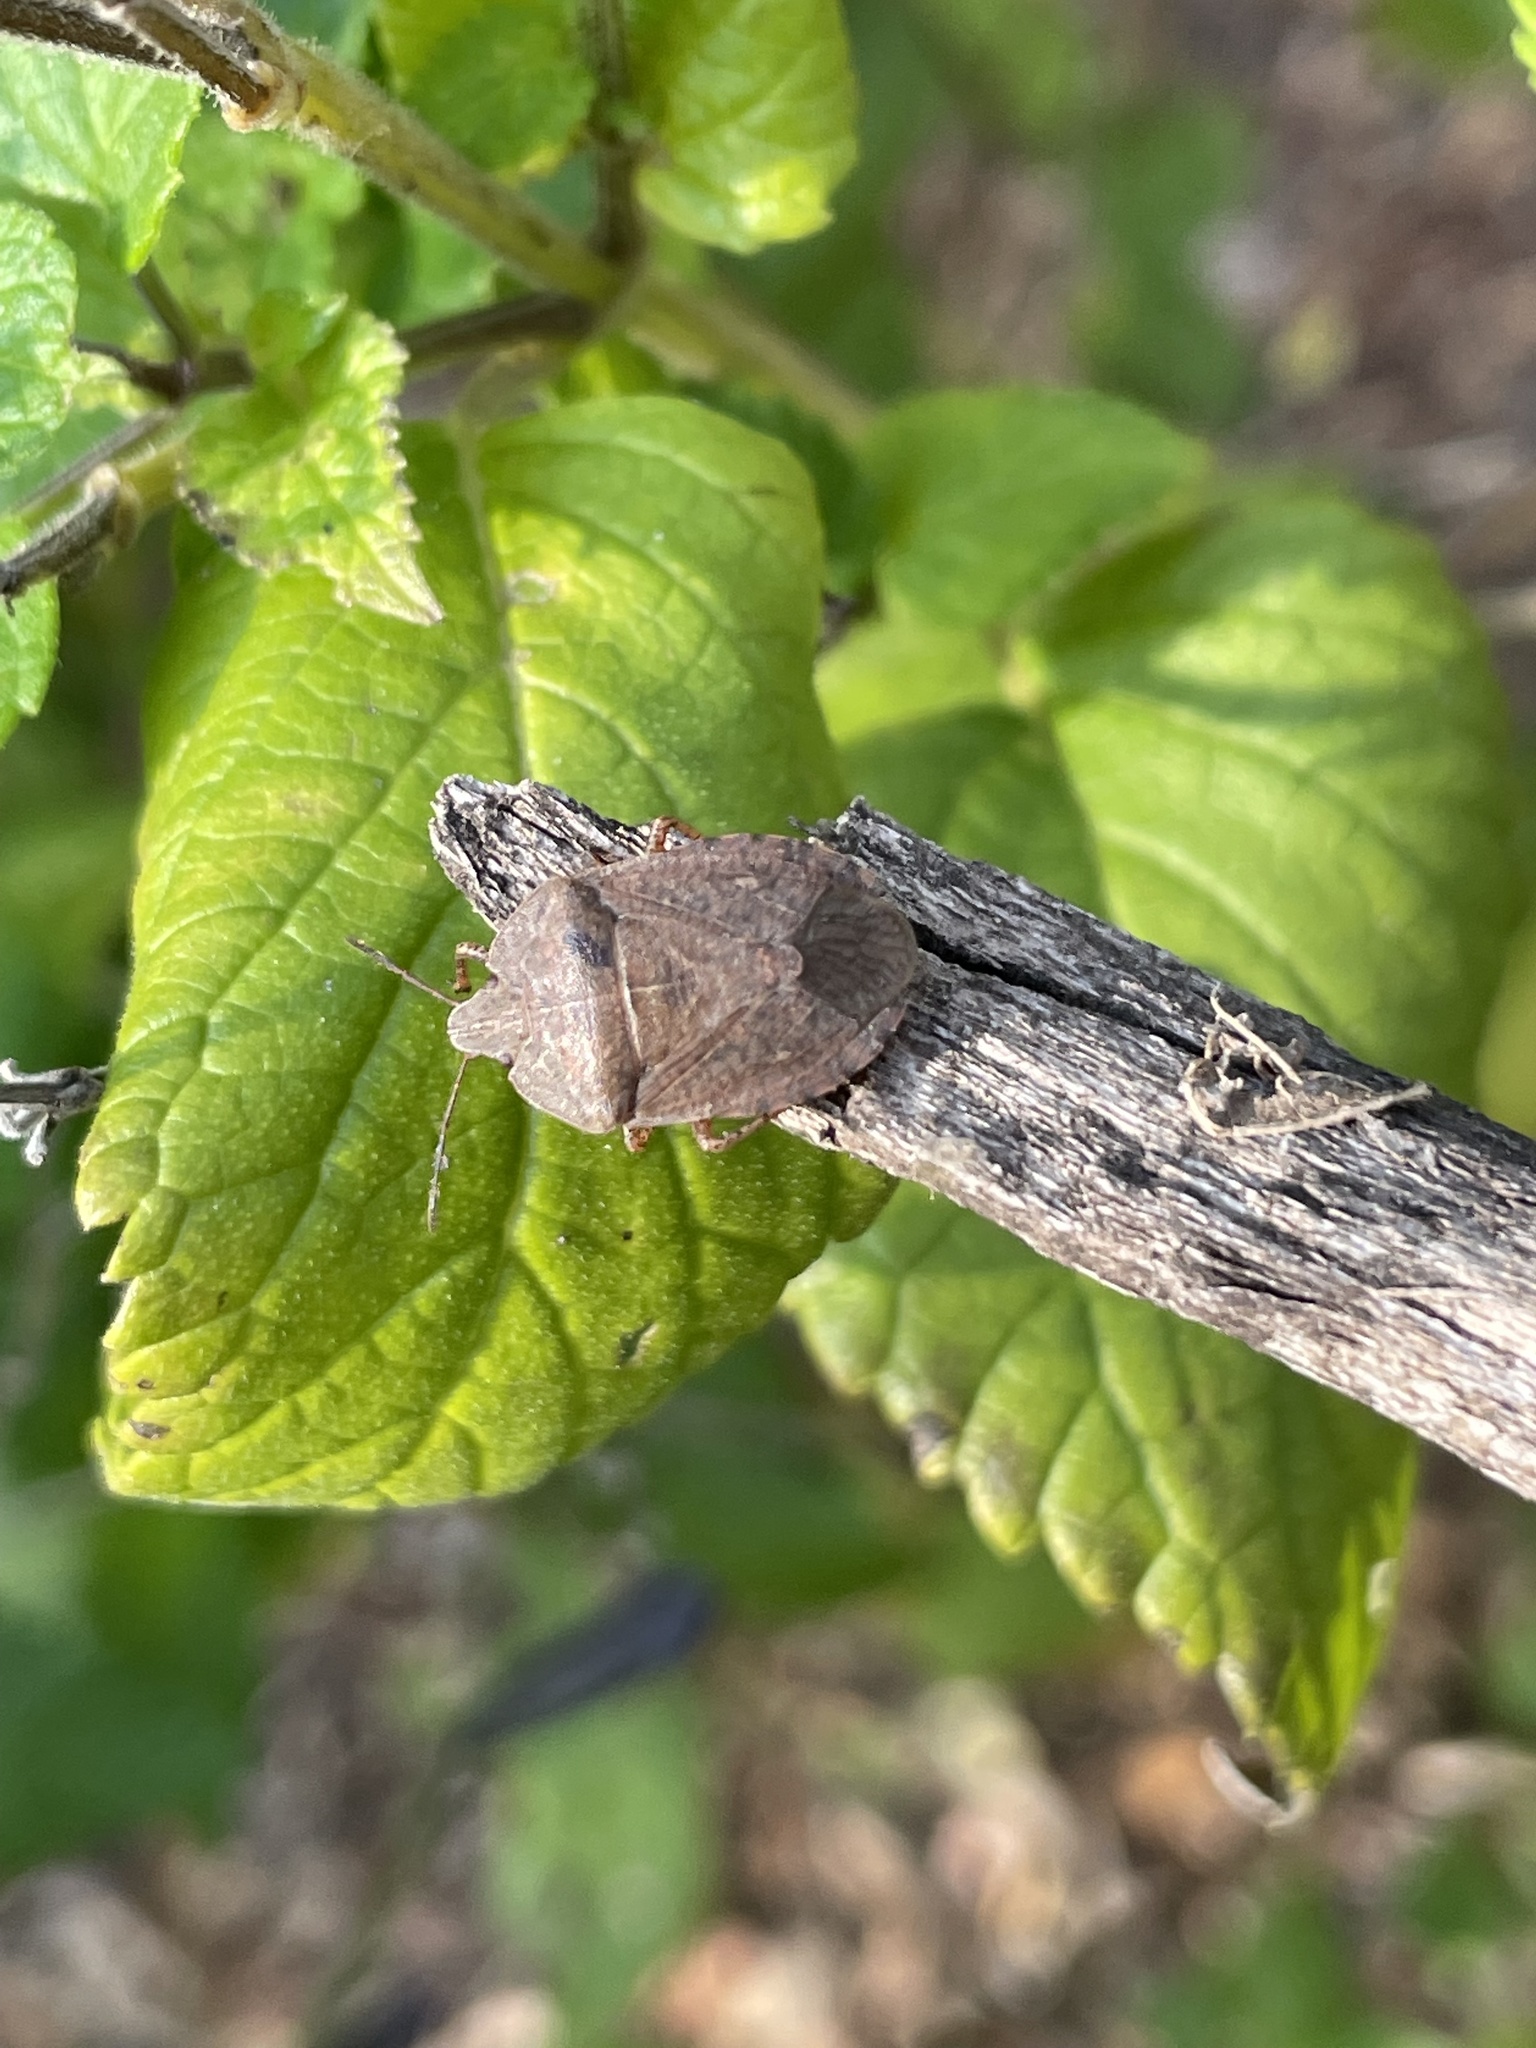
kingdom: Animalia
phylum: Arthropoda
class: Insecta
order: Hemiptera
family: Pentatomidae
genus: Menecles
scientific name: Menecles insertus
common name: Elf shoe stink bug
